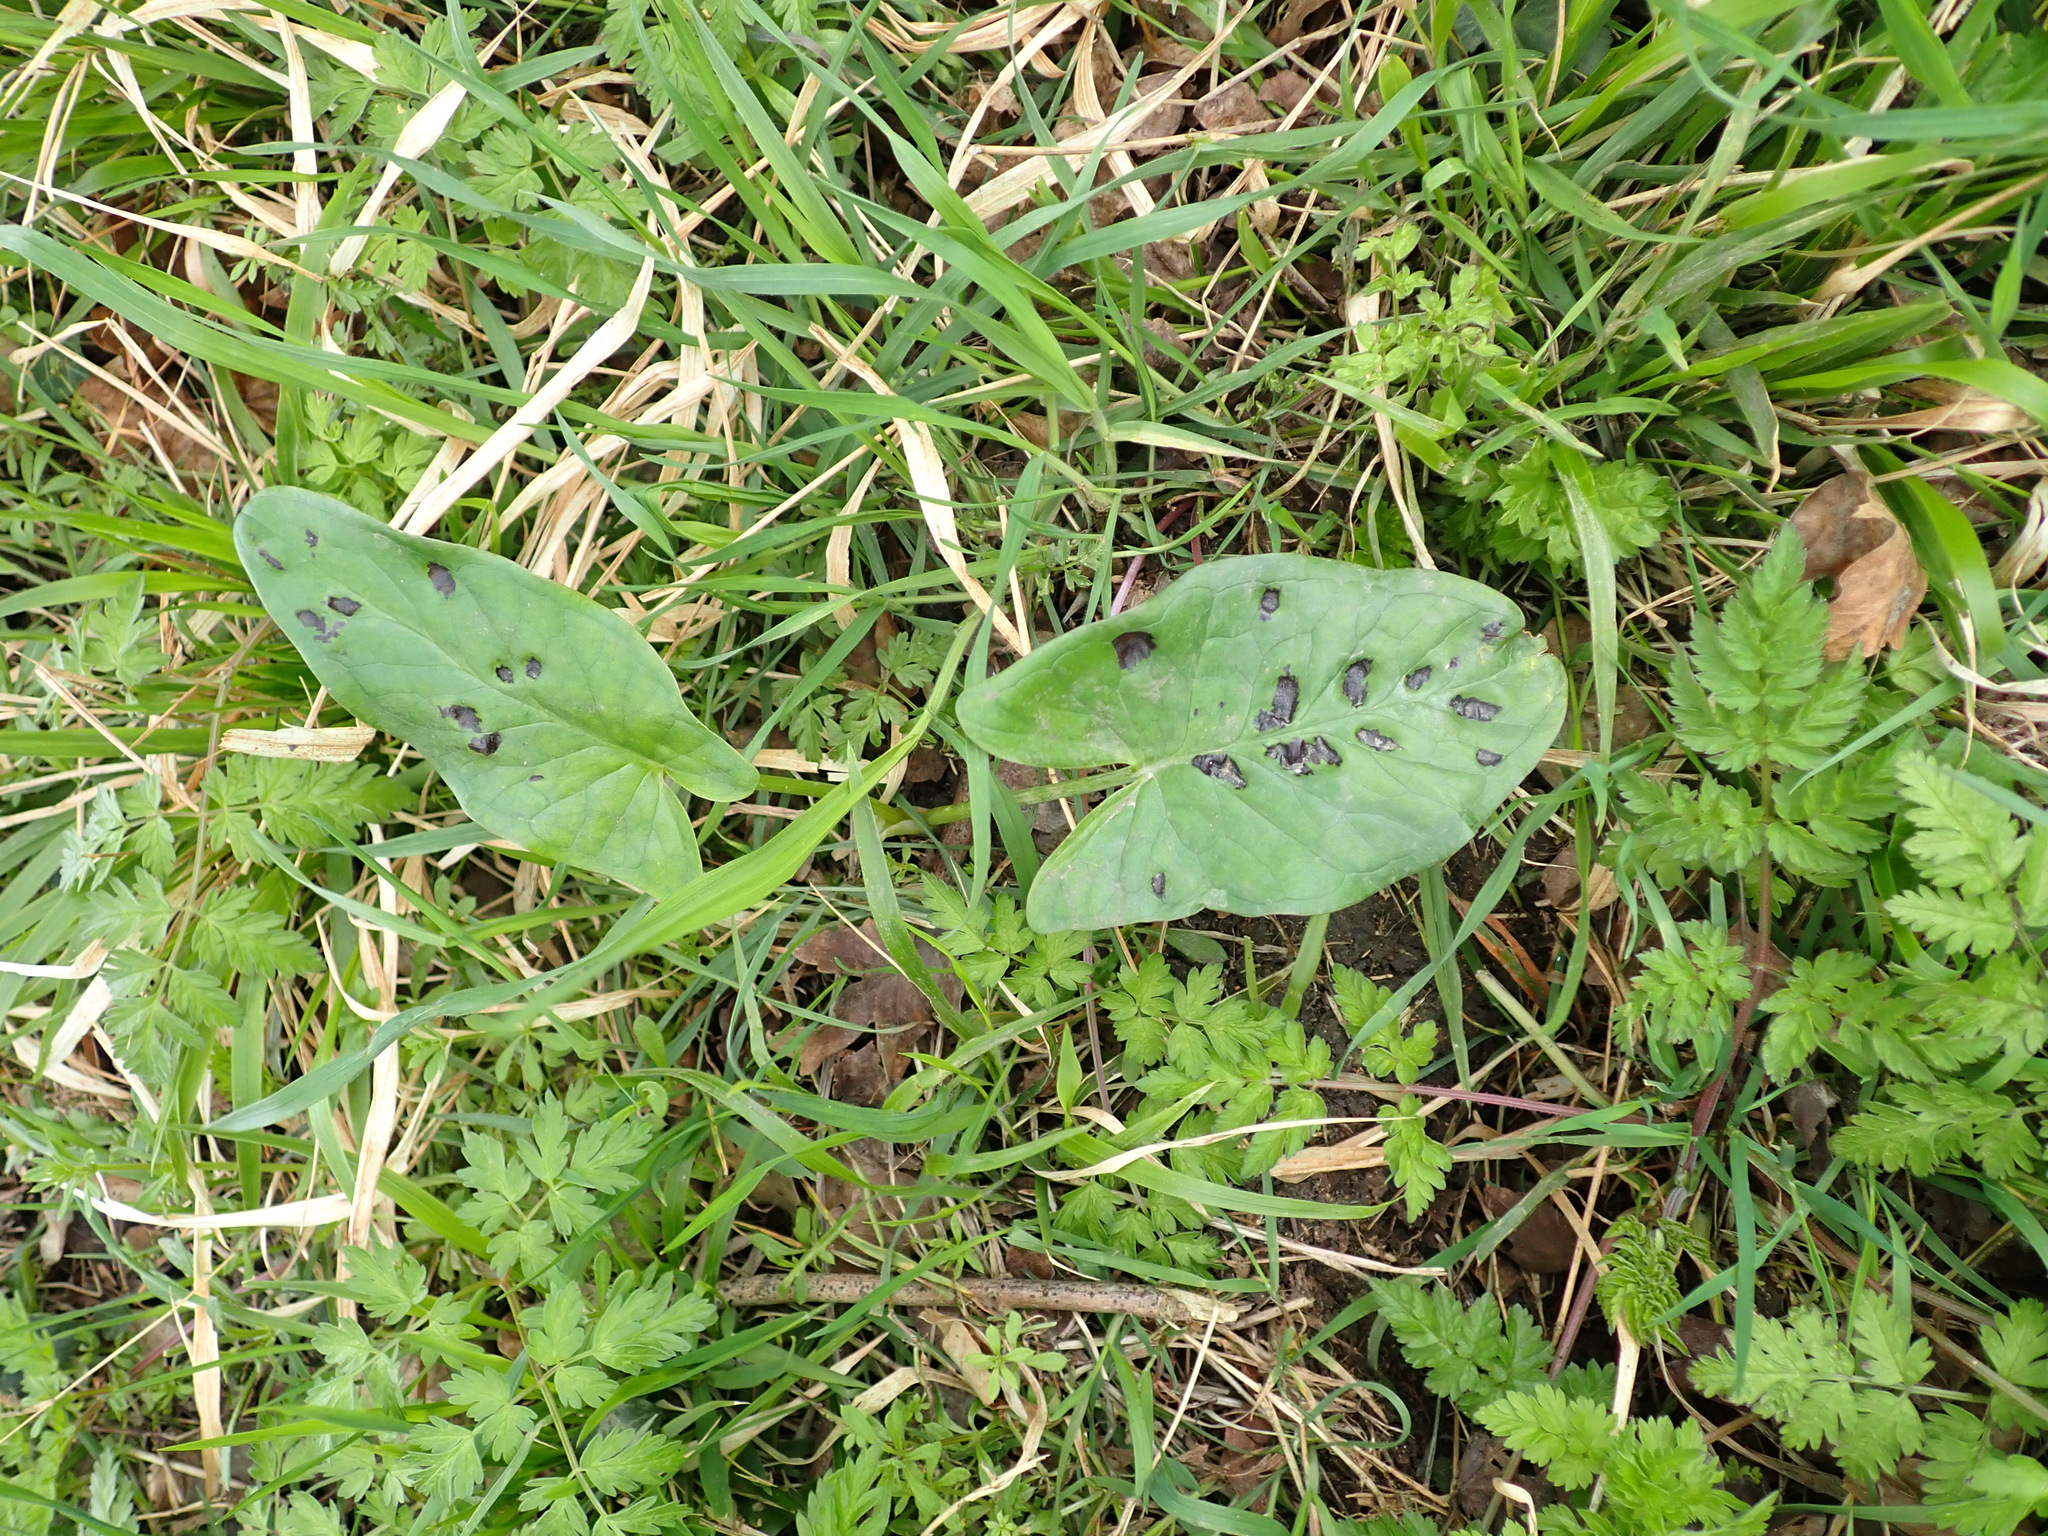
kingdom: Plantae
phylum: Tracheophyta
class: Liliopsida
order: Alismatales
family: Araceae
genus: Arum
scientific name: Arum maculatum
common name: Lords-and-ladies
